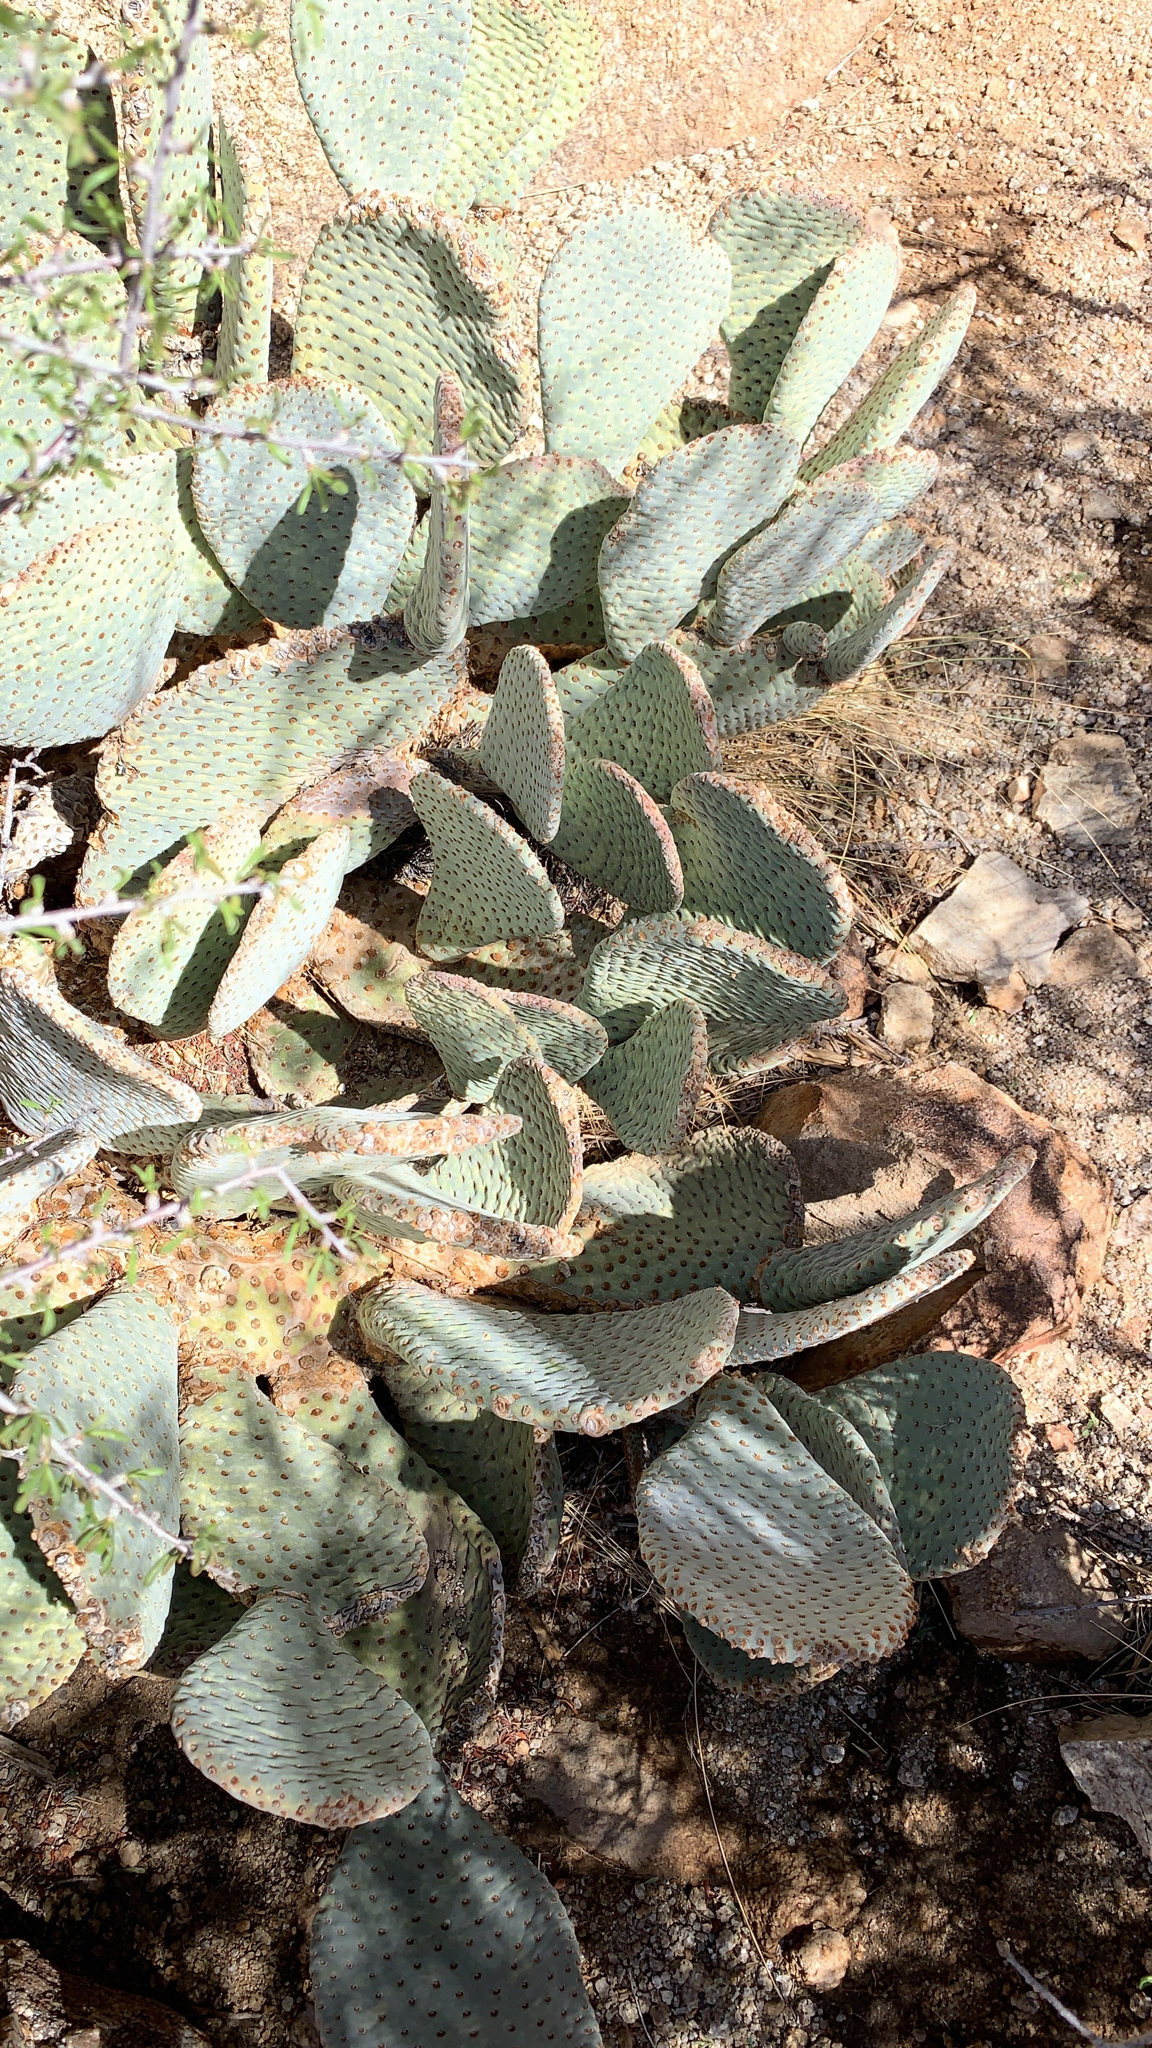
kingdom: Plantae
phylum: Tracheophyta
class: Magnoliopsida
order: Caryophyllales
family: Cactaceae
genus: Opuntia
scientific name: Opuntia basilaris
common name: Beavertail prickly-pear
